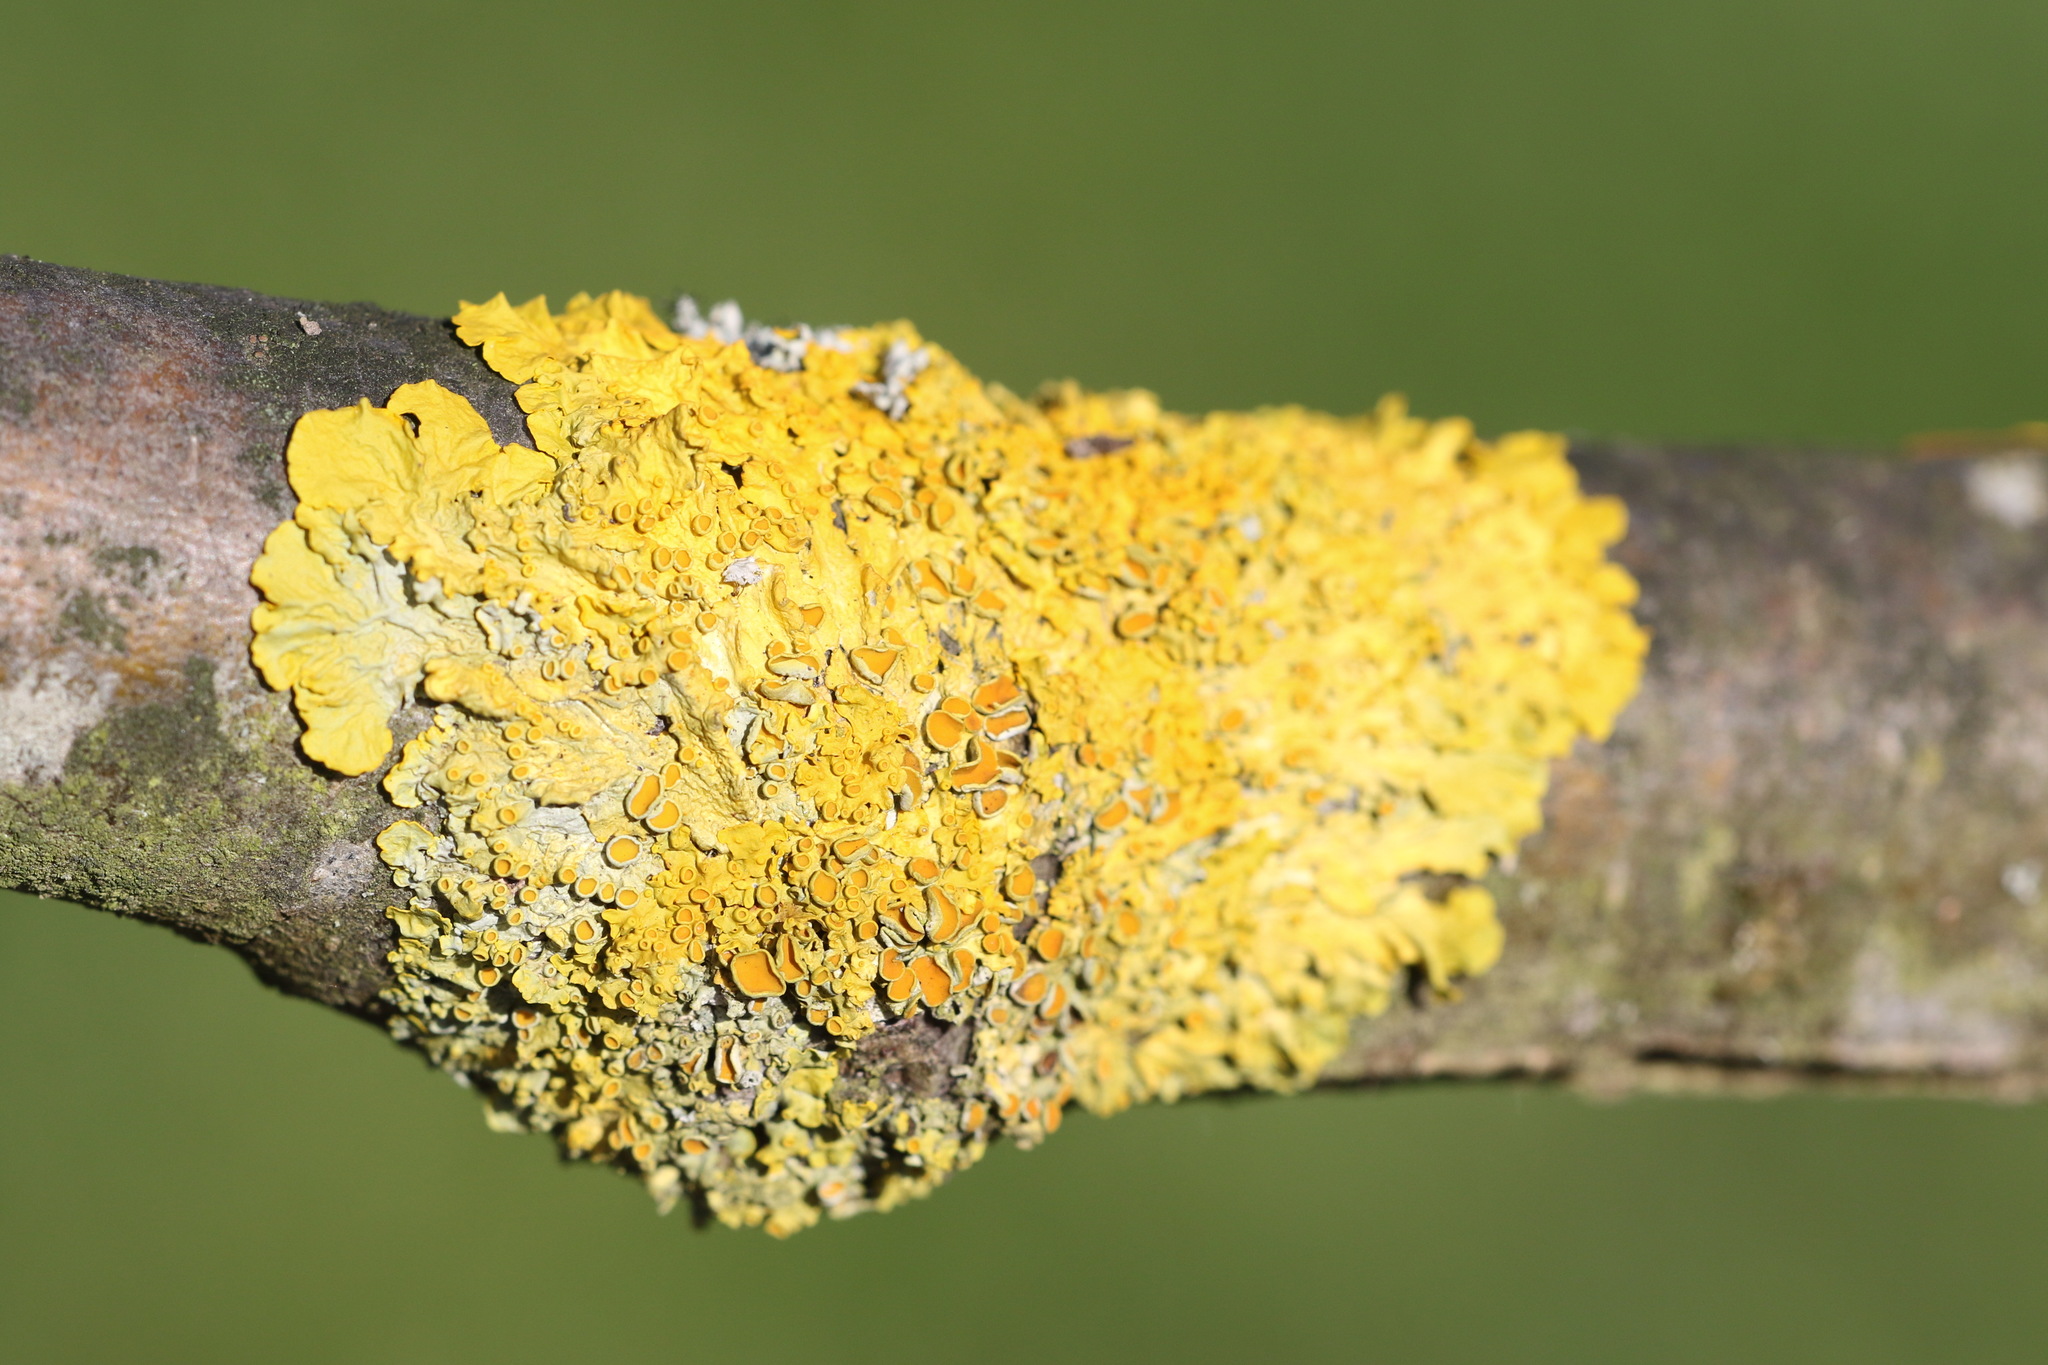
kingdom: Fungi
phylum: Ascomycota
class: Lecanoromycetes
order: Teloschistales
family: Teloschistaceae
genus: Xanthoria
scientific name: Xanthoria parietina
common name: Common orange lichen
